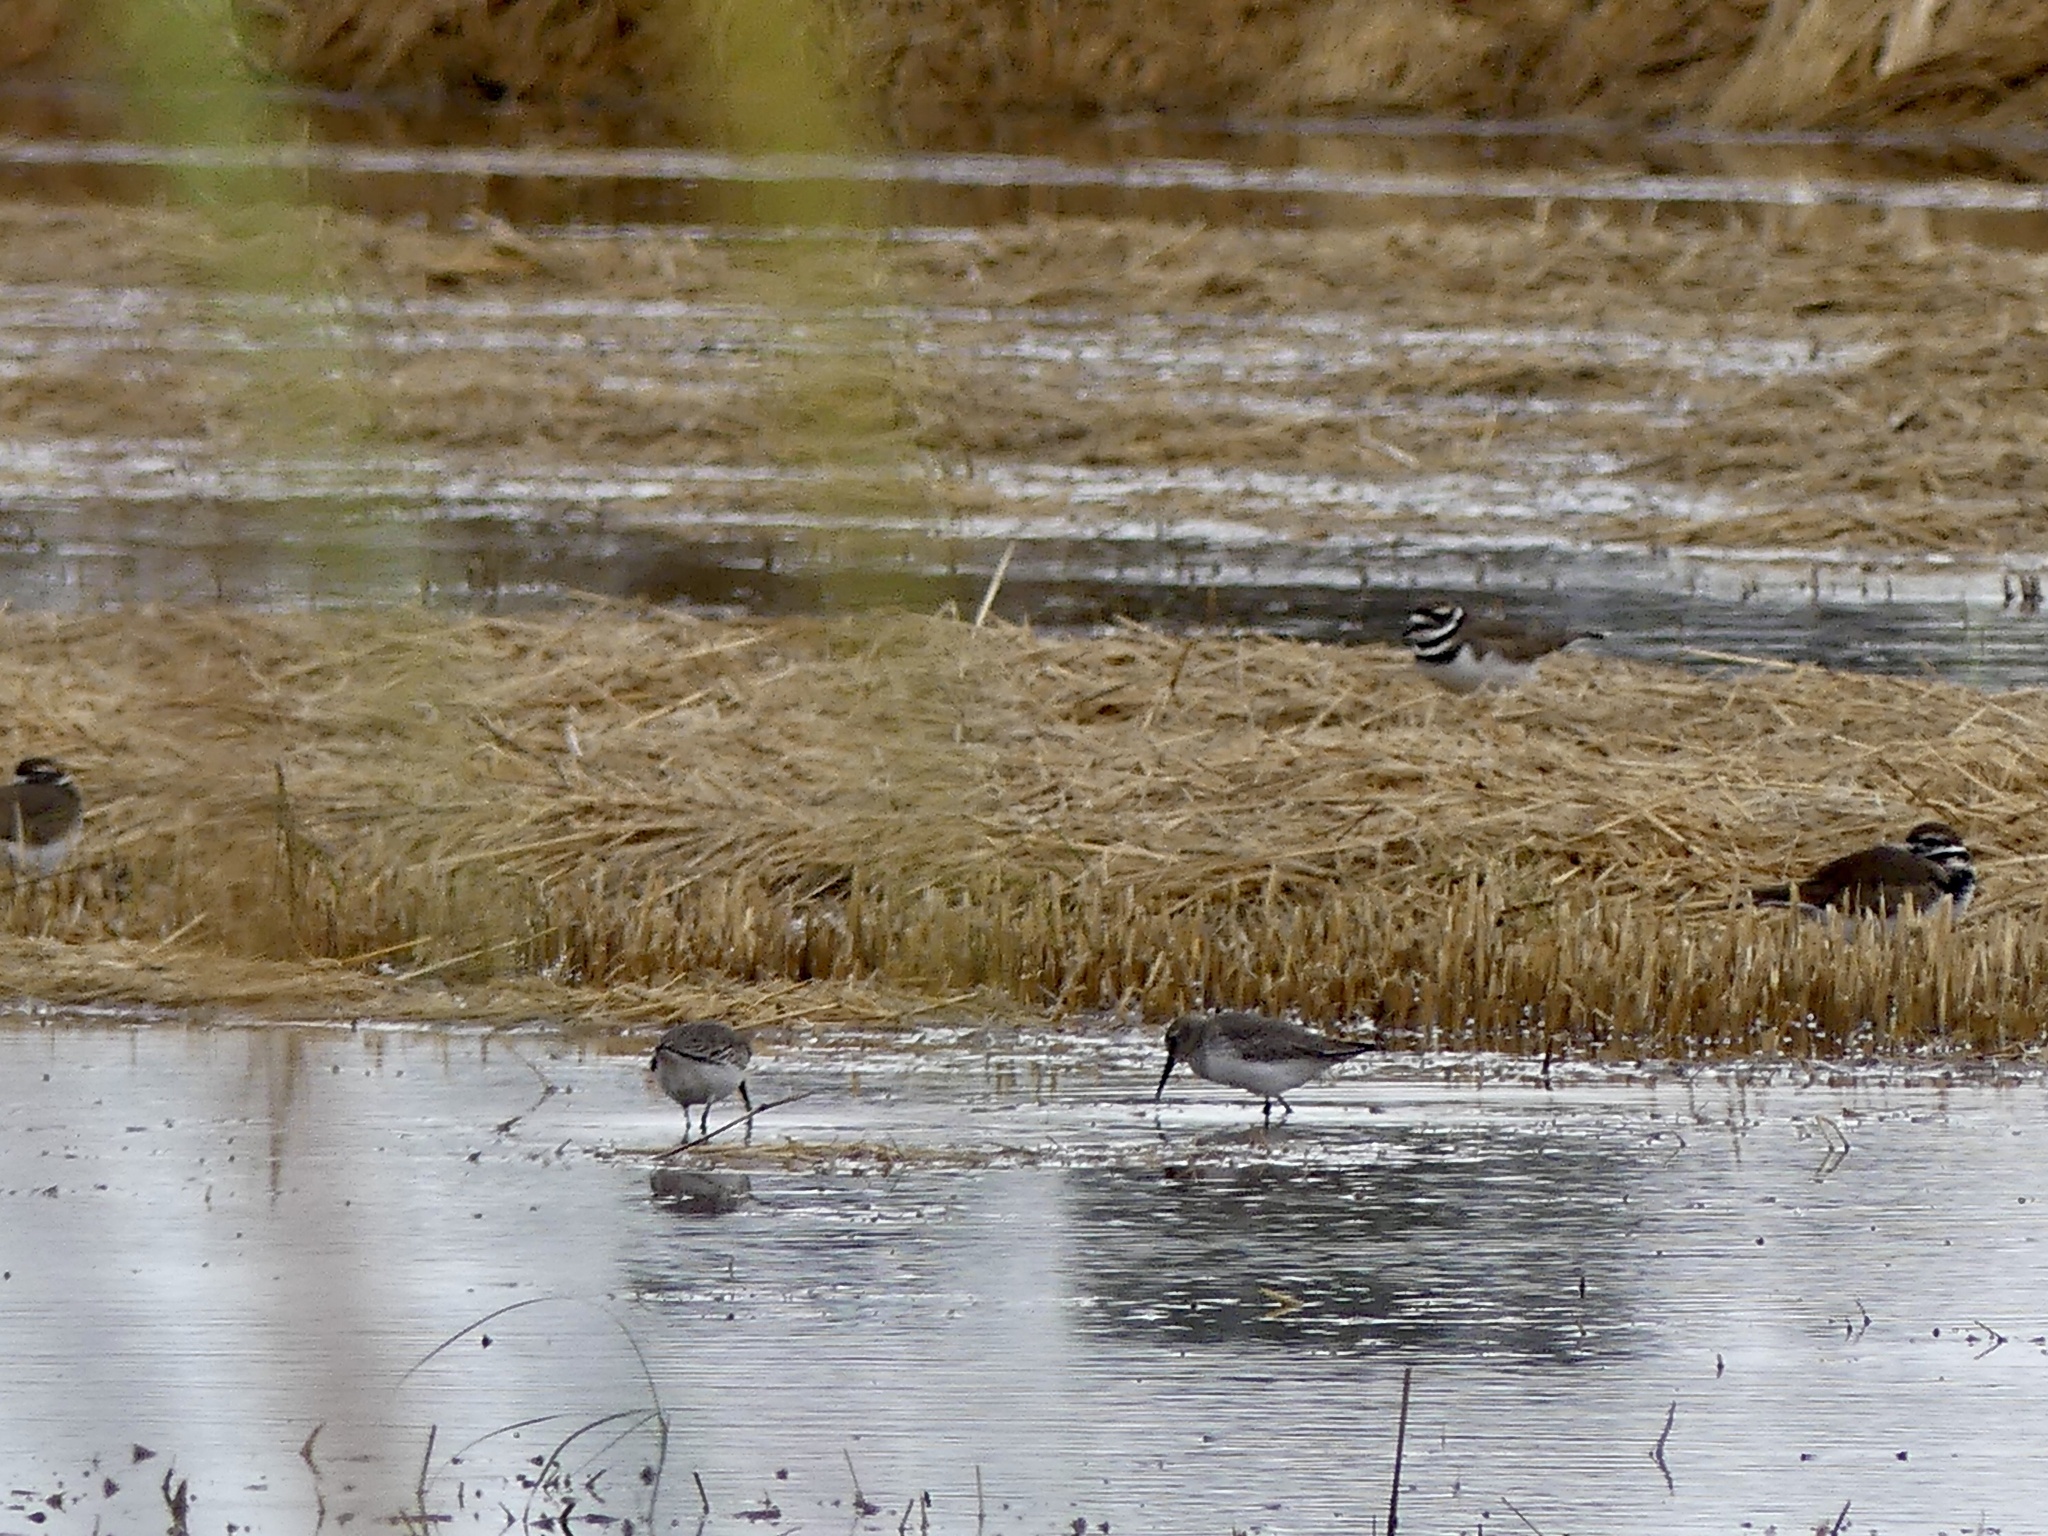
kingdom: Animalia
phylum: Chordata
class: Aves
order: Charadriiformes
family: Scolopacidae
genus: Calidris
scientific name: Calidris alpina
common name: Dunlin
